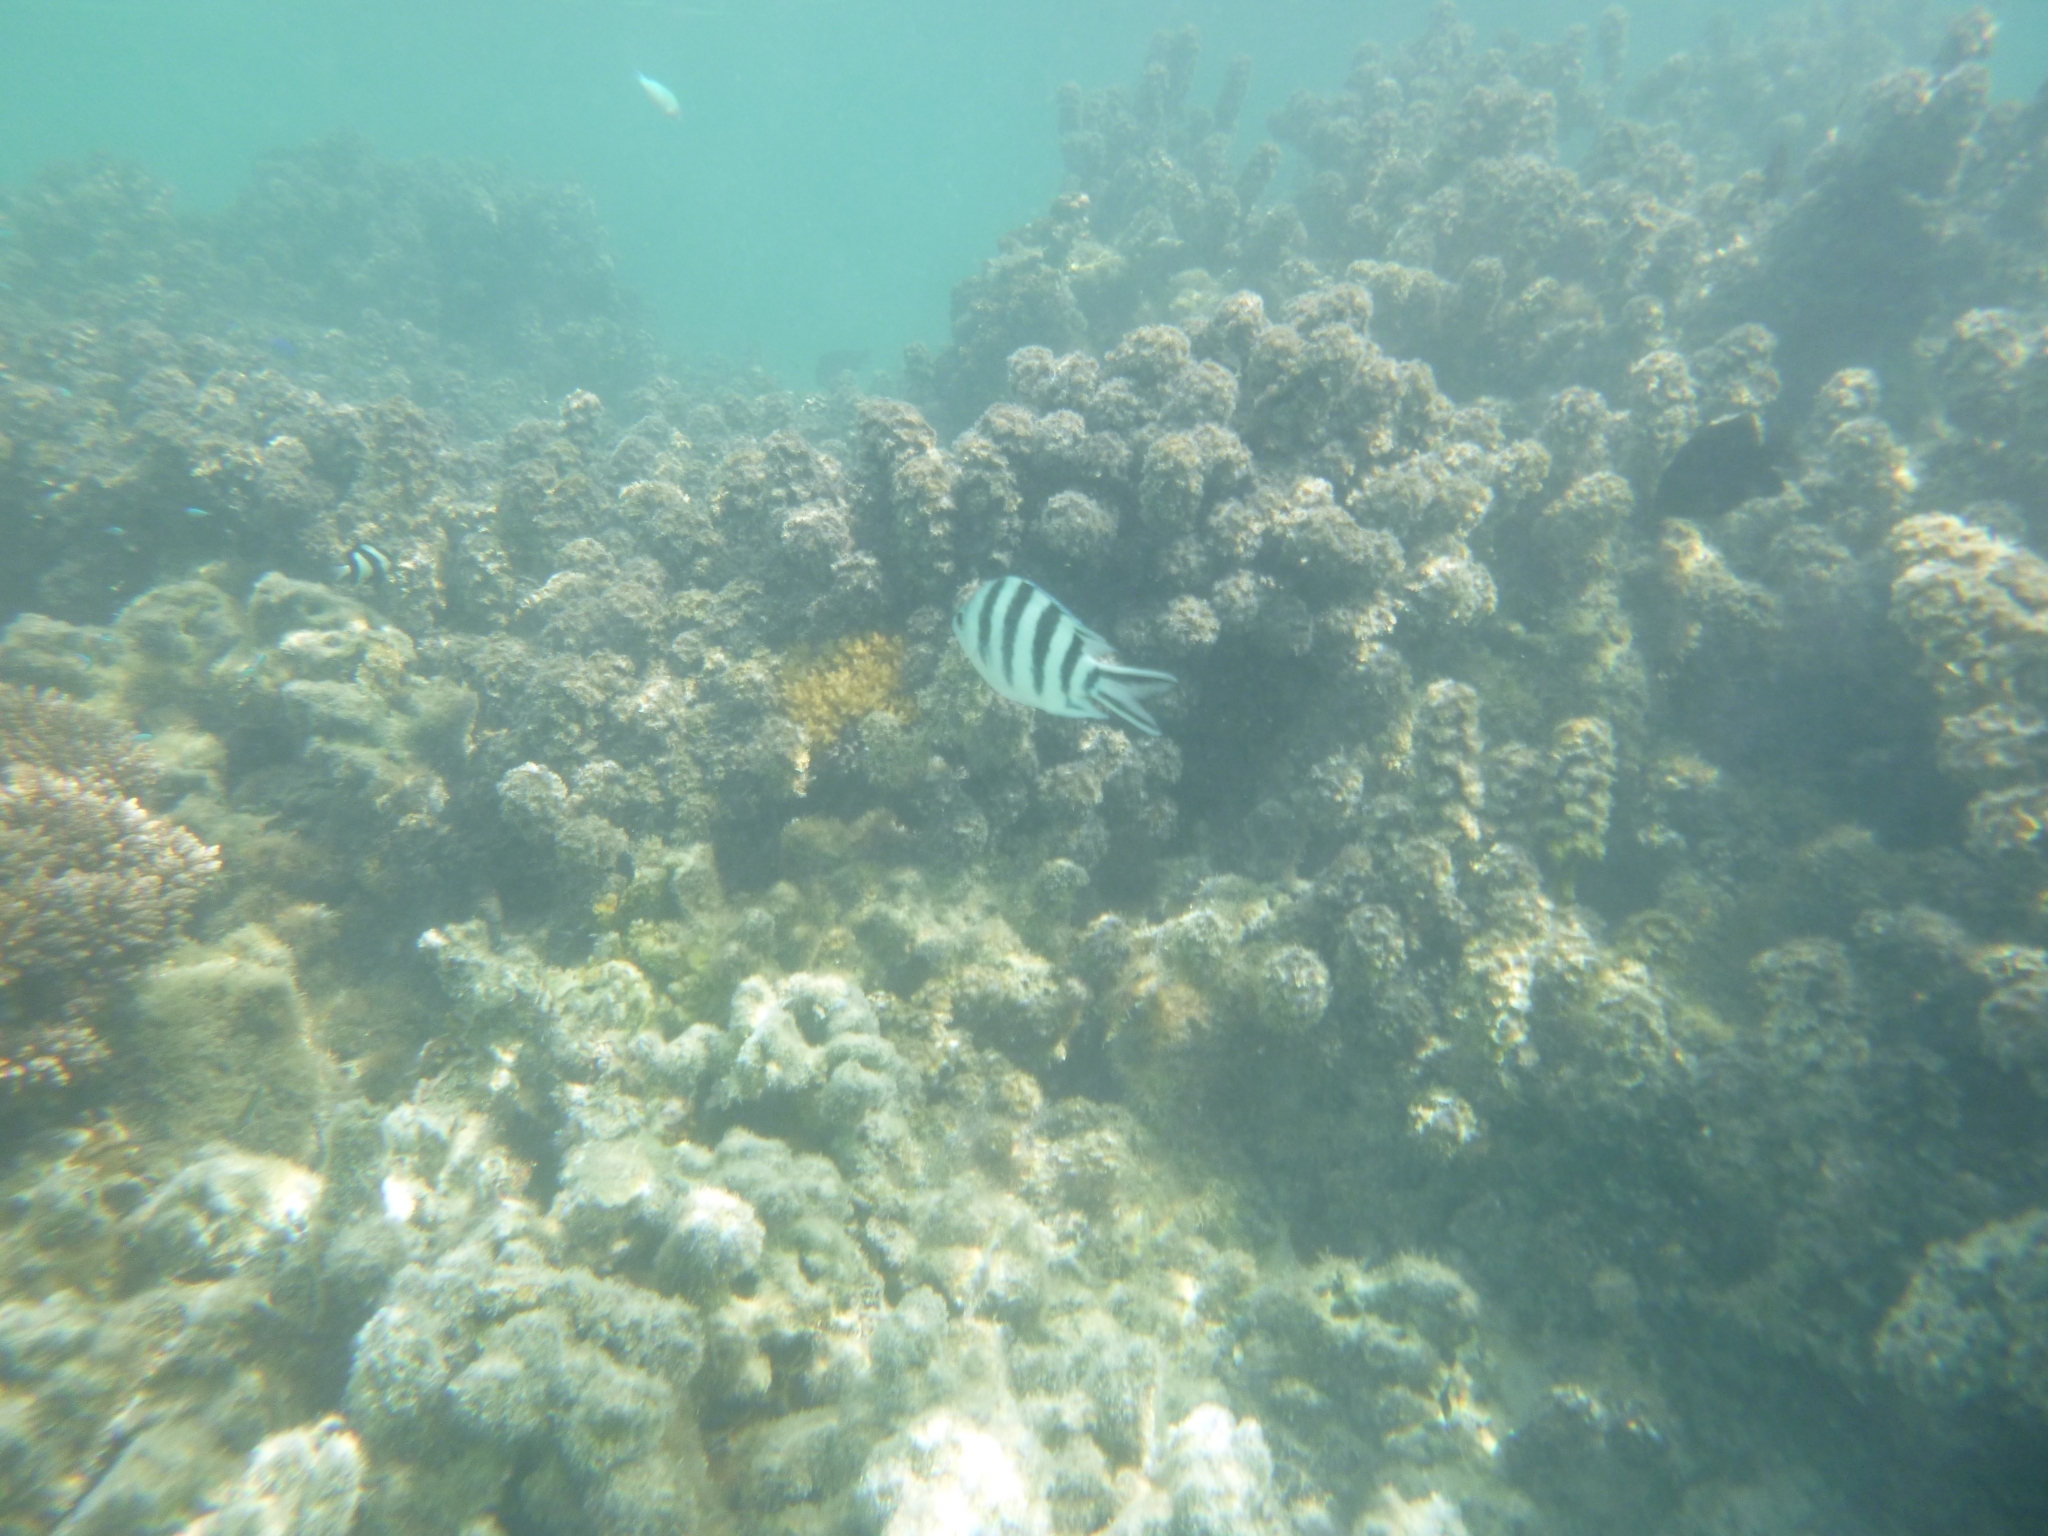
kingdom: Animalia
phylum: Chordata
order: Perciformes
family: Pomacentridae
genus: Abudefduf
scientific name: Abudefduf sexfasciatus
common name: Scissortail sergeant
